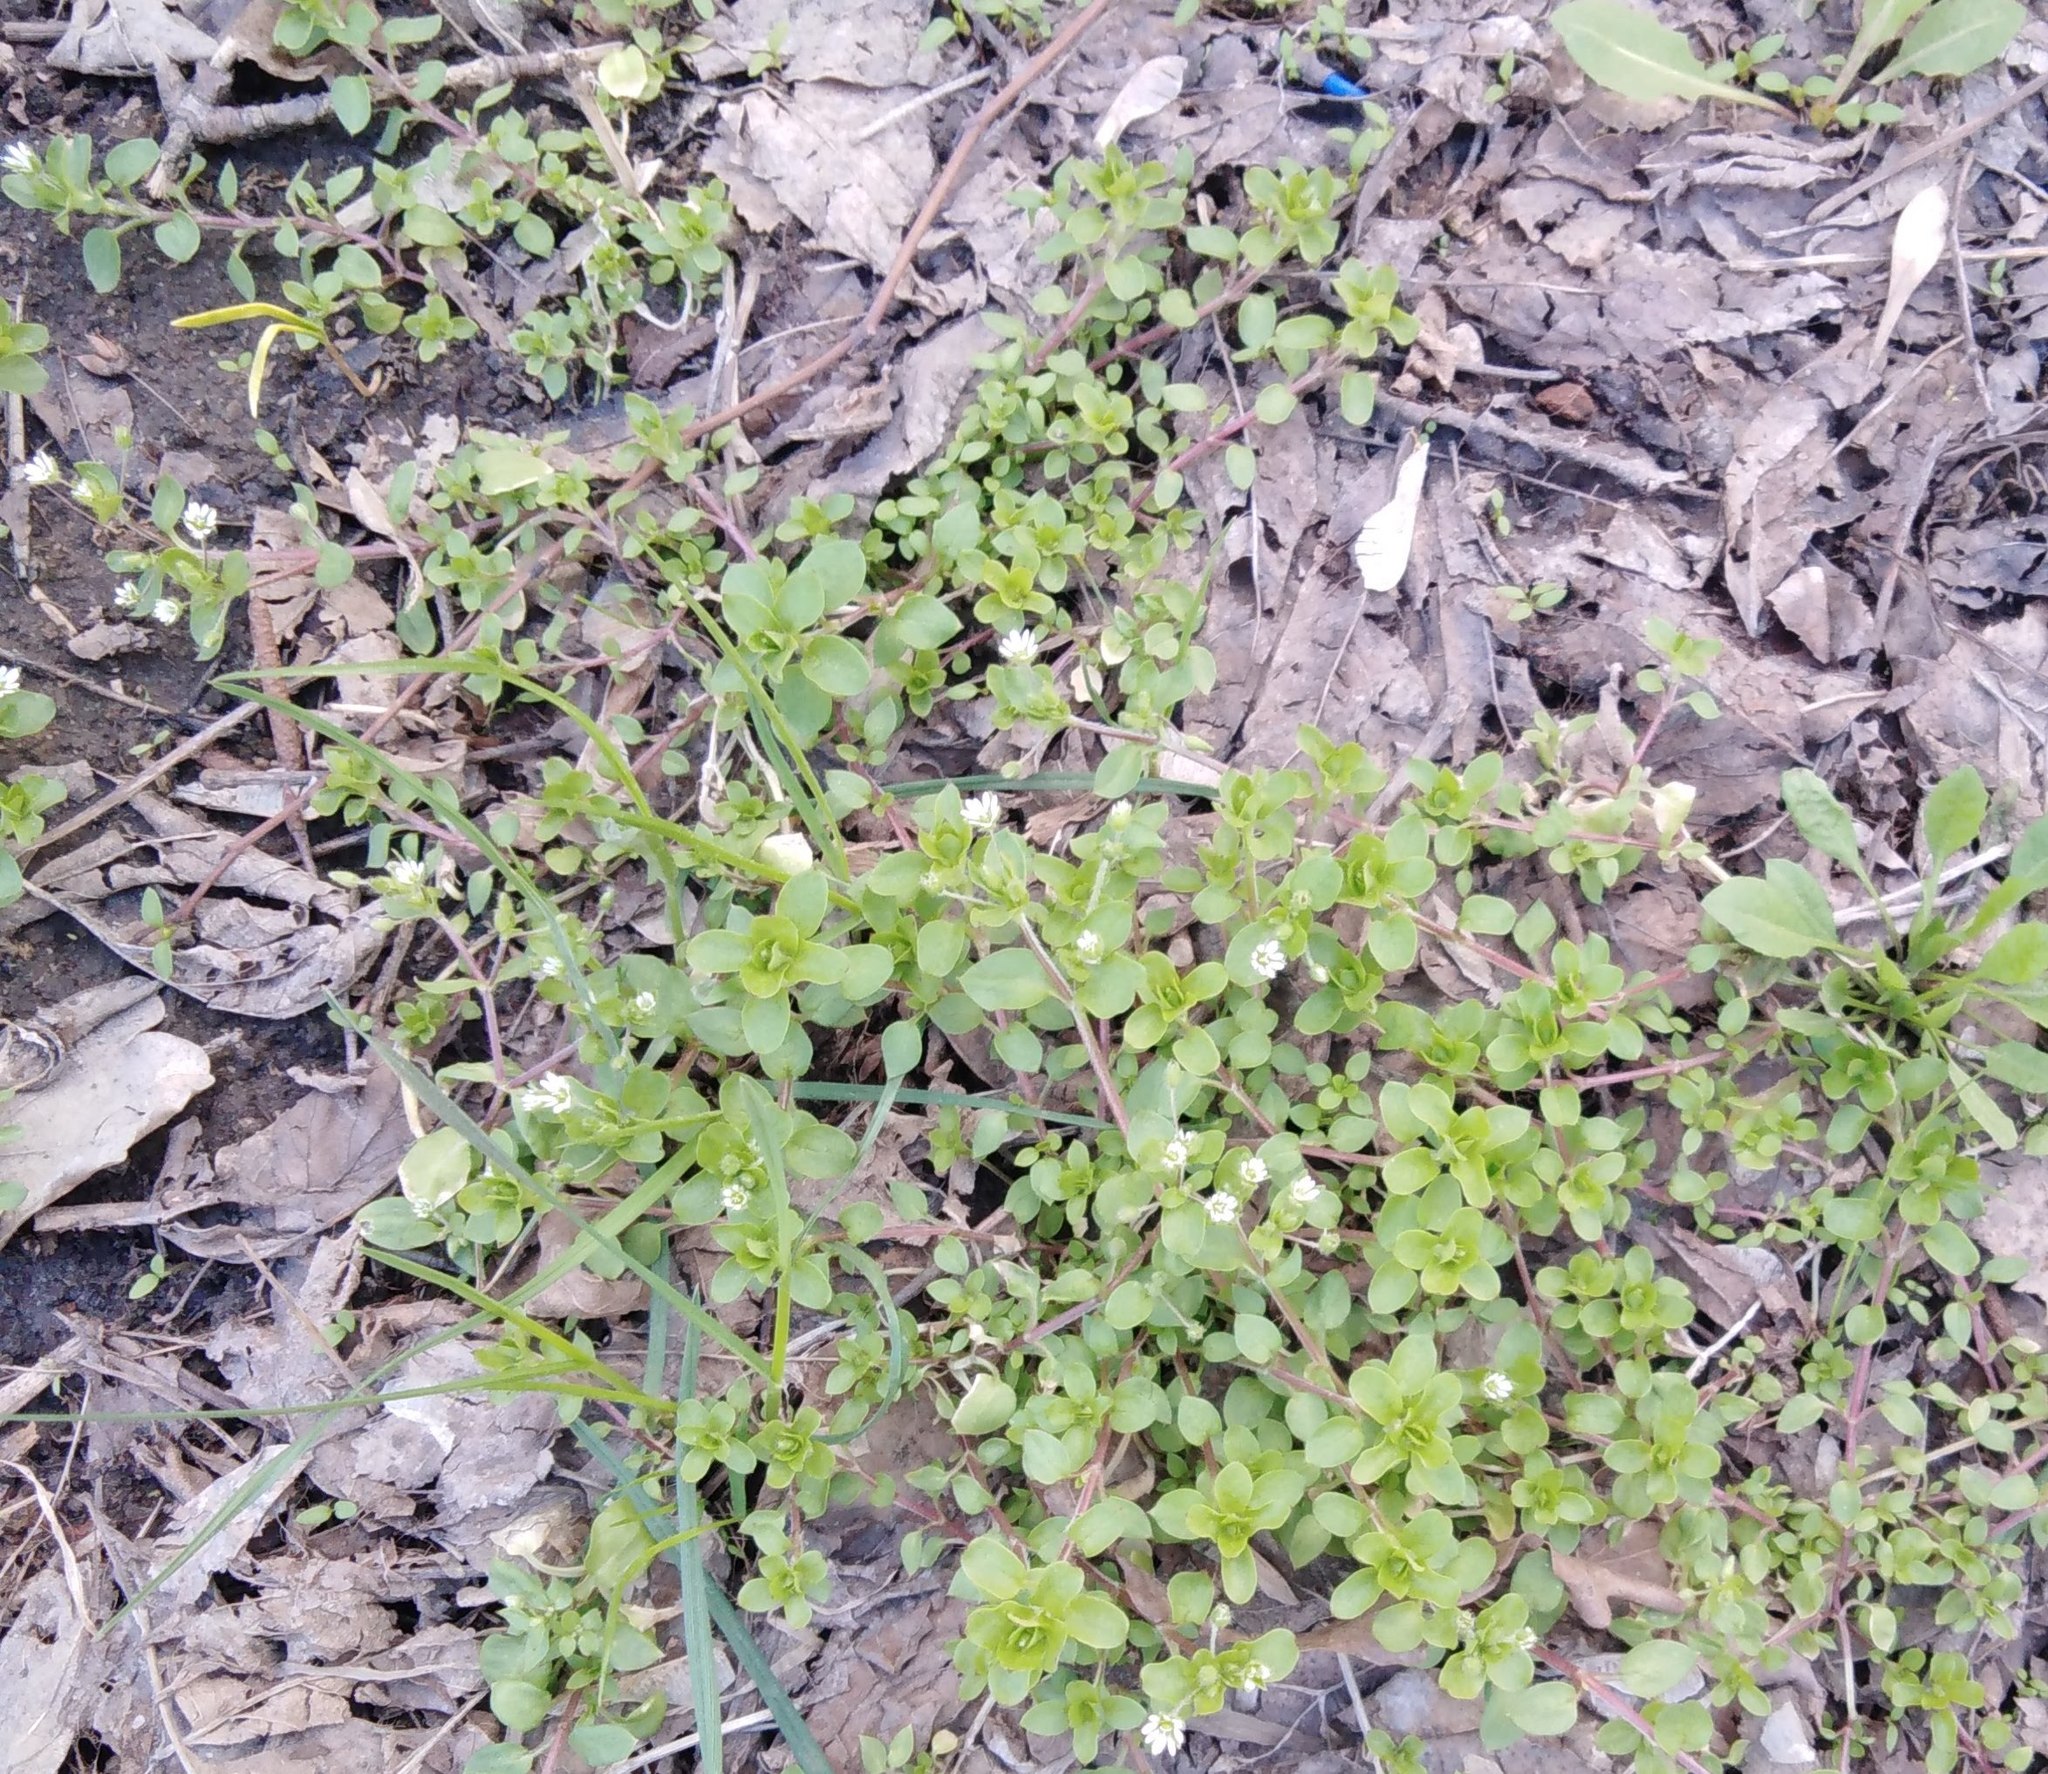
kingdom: Plantae
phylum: Tracheophyta
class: Magnoliopsida
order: Caryophyllales
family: Caryophyllaceae
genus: Stellaria
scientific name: Stellaria media
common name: Common chickweed
